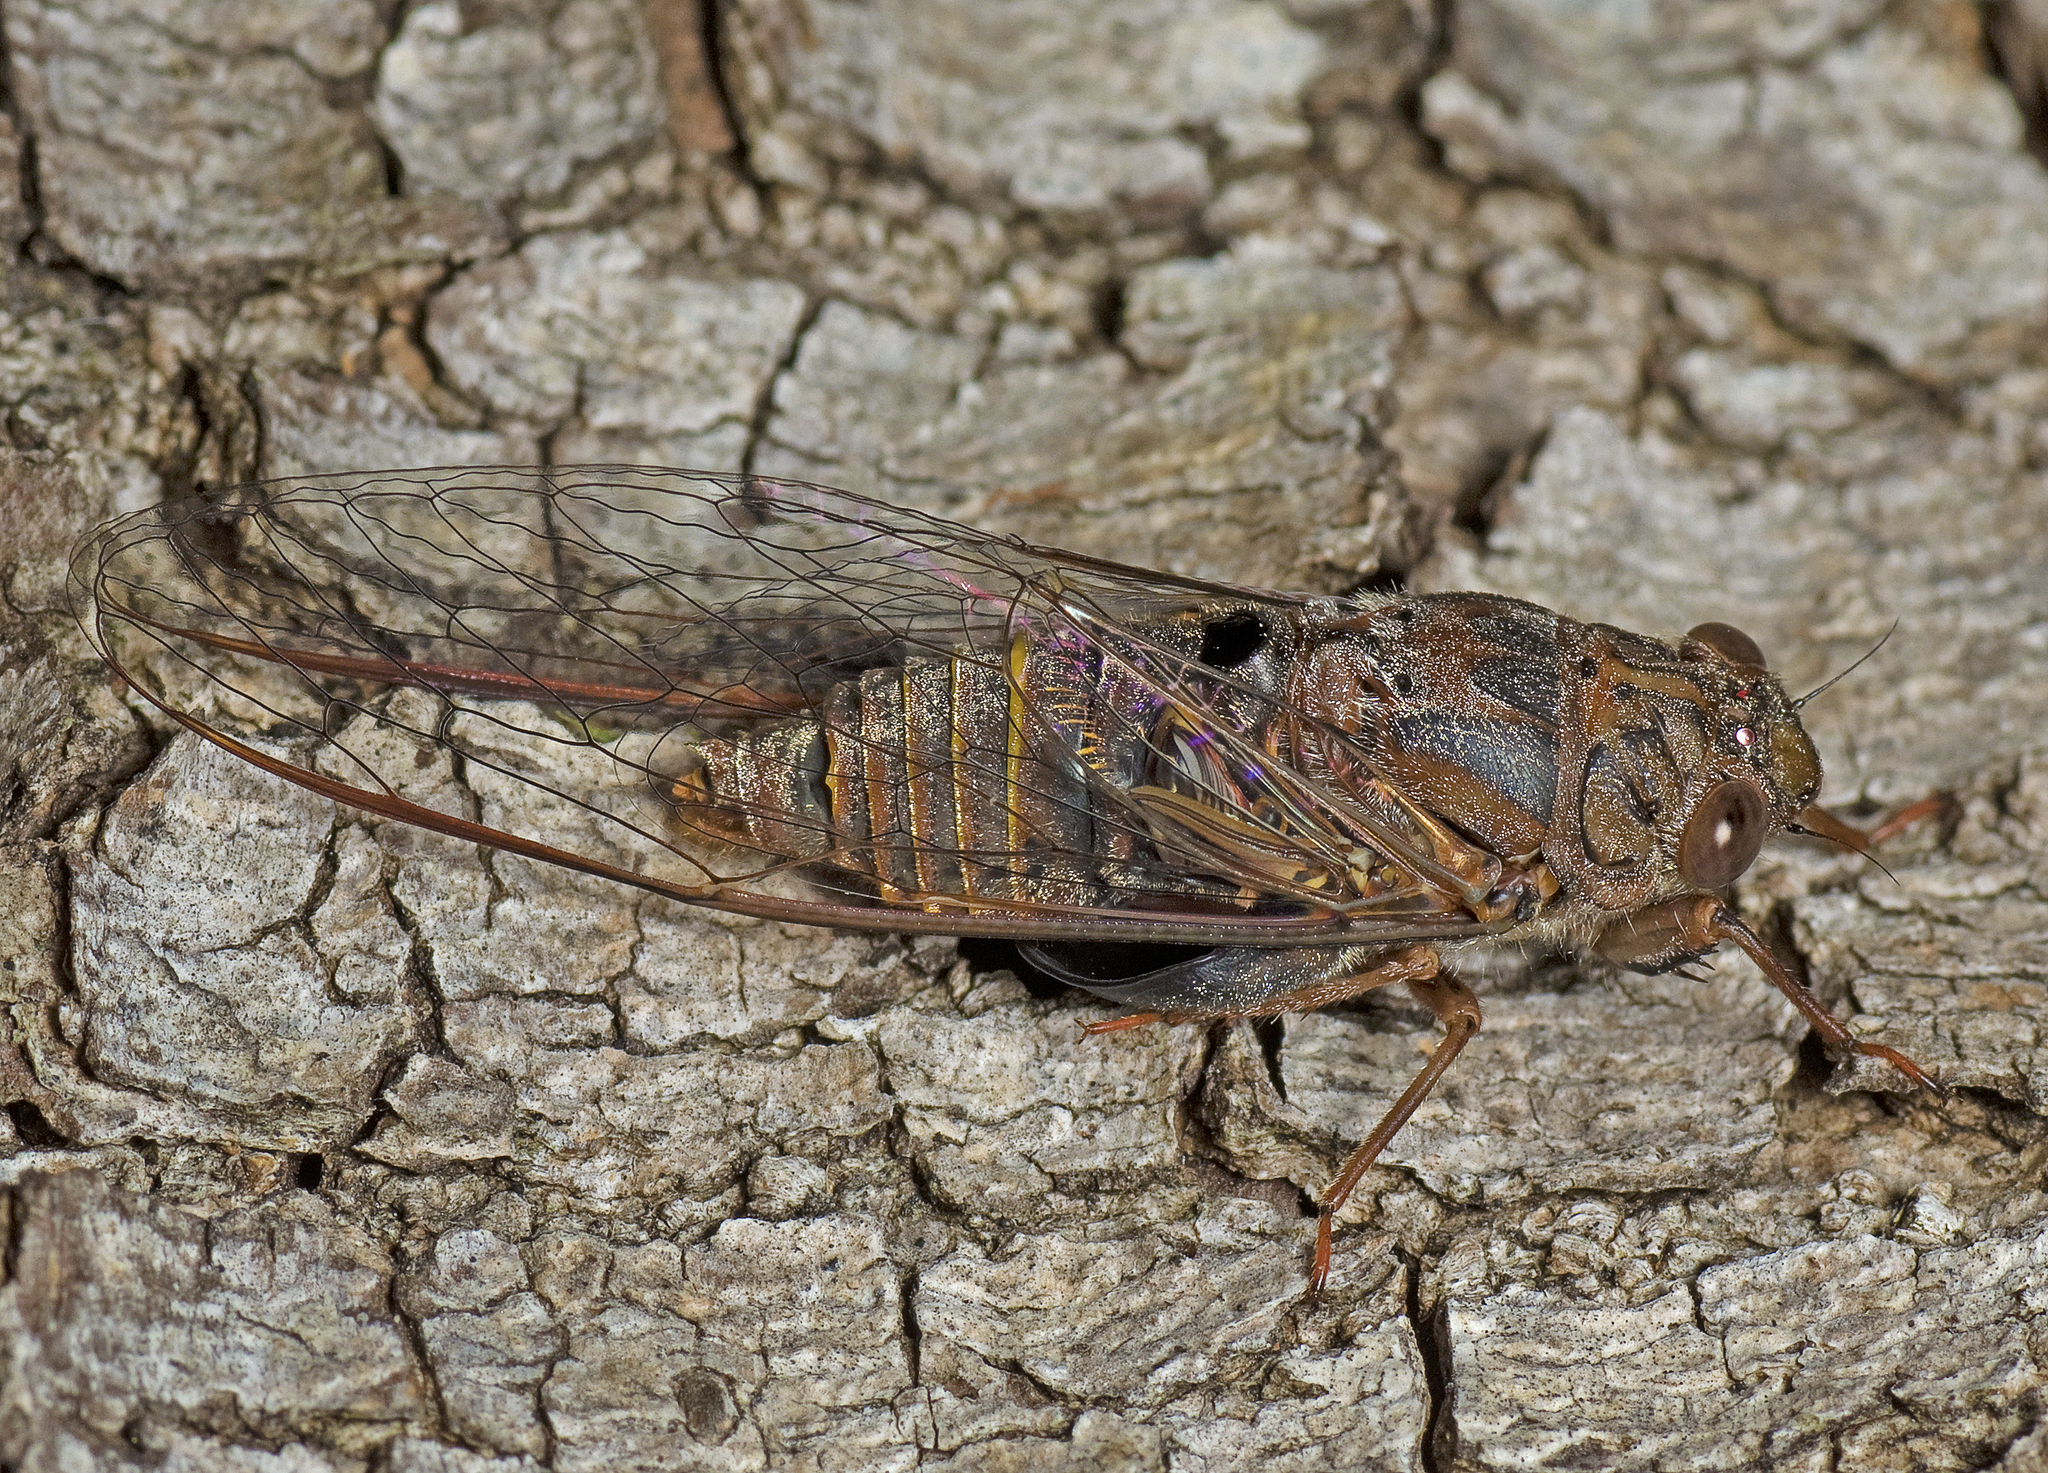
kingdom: Animalia
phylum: Arthropoda
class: Insecta
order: Hemiptera
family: Cicadidae
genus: Birrima
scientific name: Birrima varians
